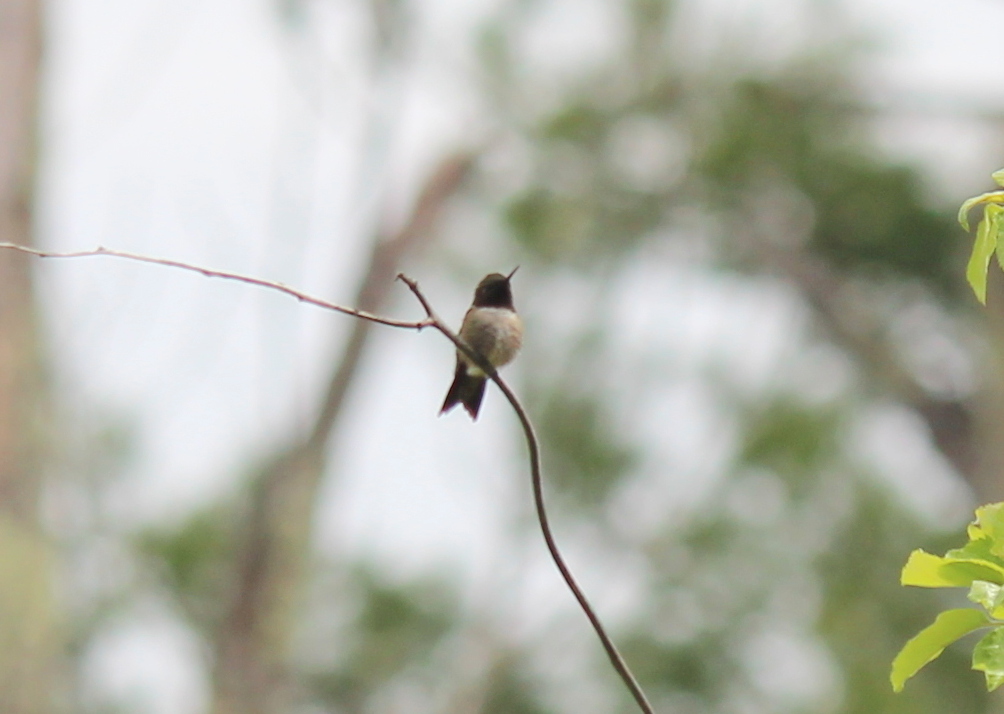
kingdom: Animalia
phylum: Chordata
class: Aves
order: Apodiformes
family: Trochilidae
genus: Archilochus
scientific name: Archilochus colubris
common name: Ruby-throated hummingbird
